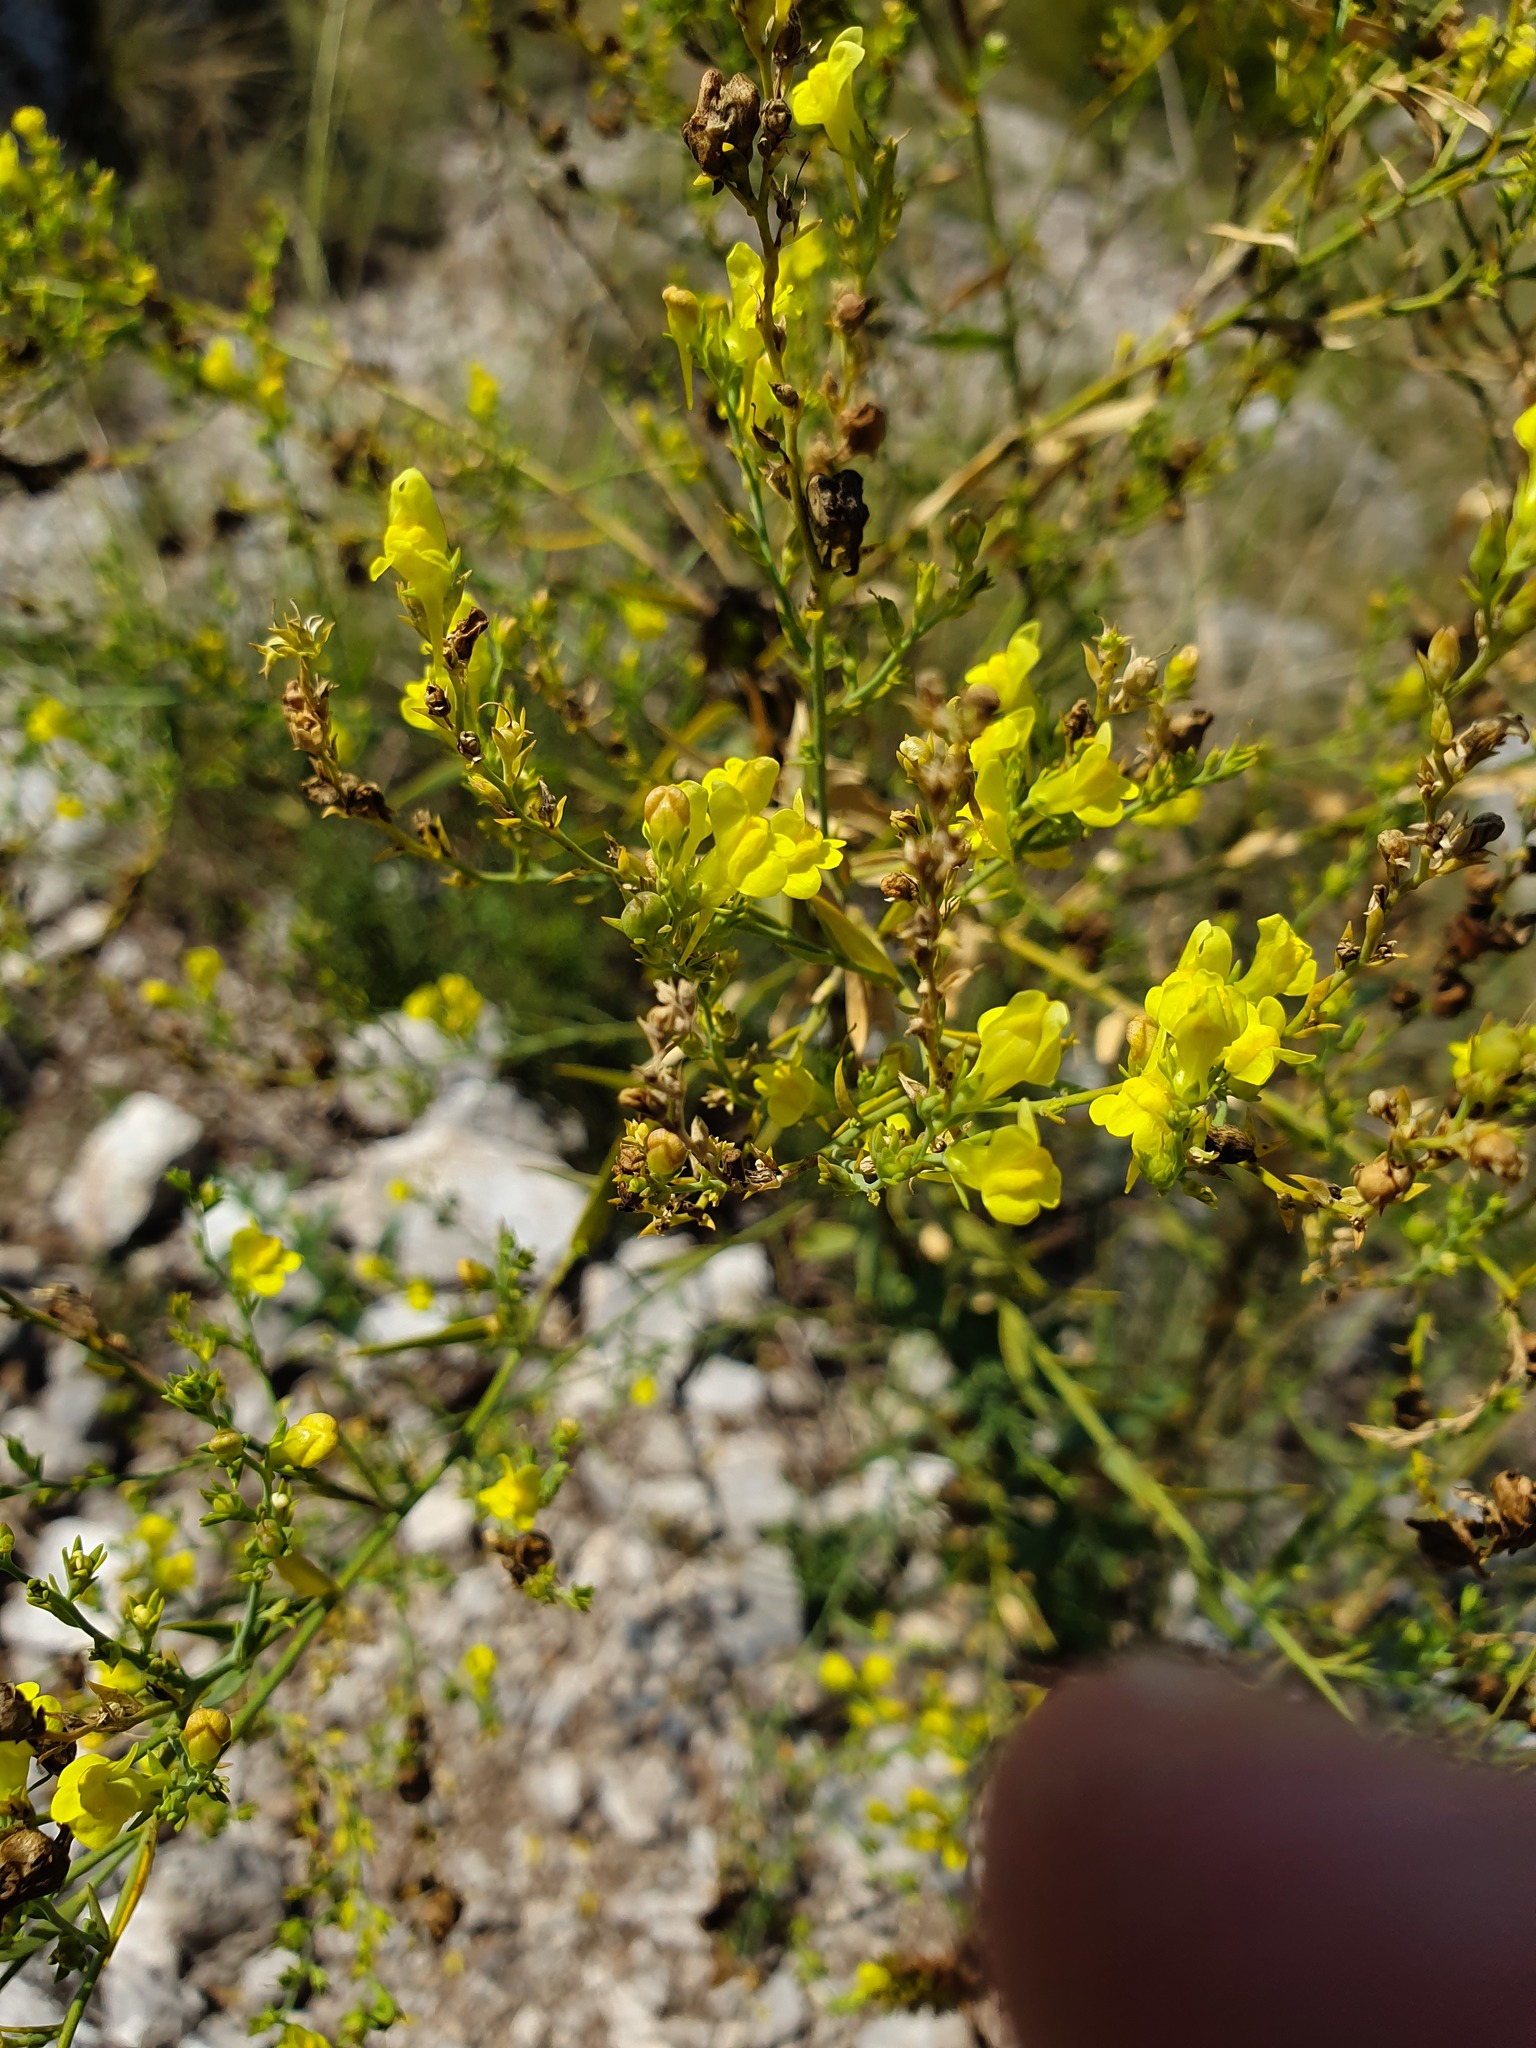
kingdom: Plantae
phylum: Tracheophyta
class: Magnoliopsida
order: Lamiales
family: Plantaginaceae
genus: Linaria
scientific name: Linaria genistifolia
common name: Broomleaf toadflax
